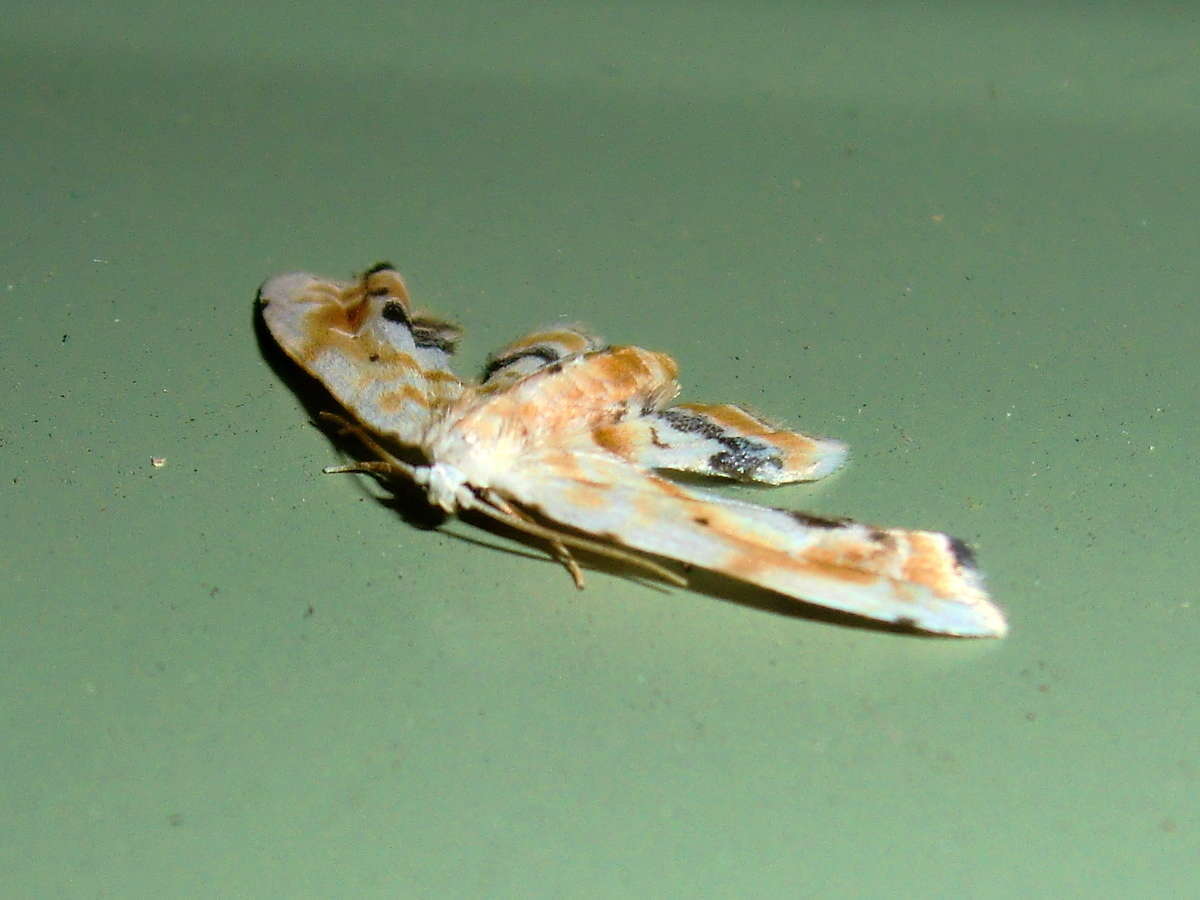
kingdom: Animalia
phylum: Arthropoda
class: Insecta
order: Lepidoptera
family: Noctuidae
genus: Holocryptis
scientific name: Holocryptis phasianura
